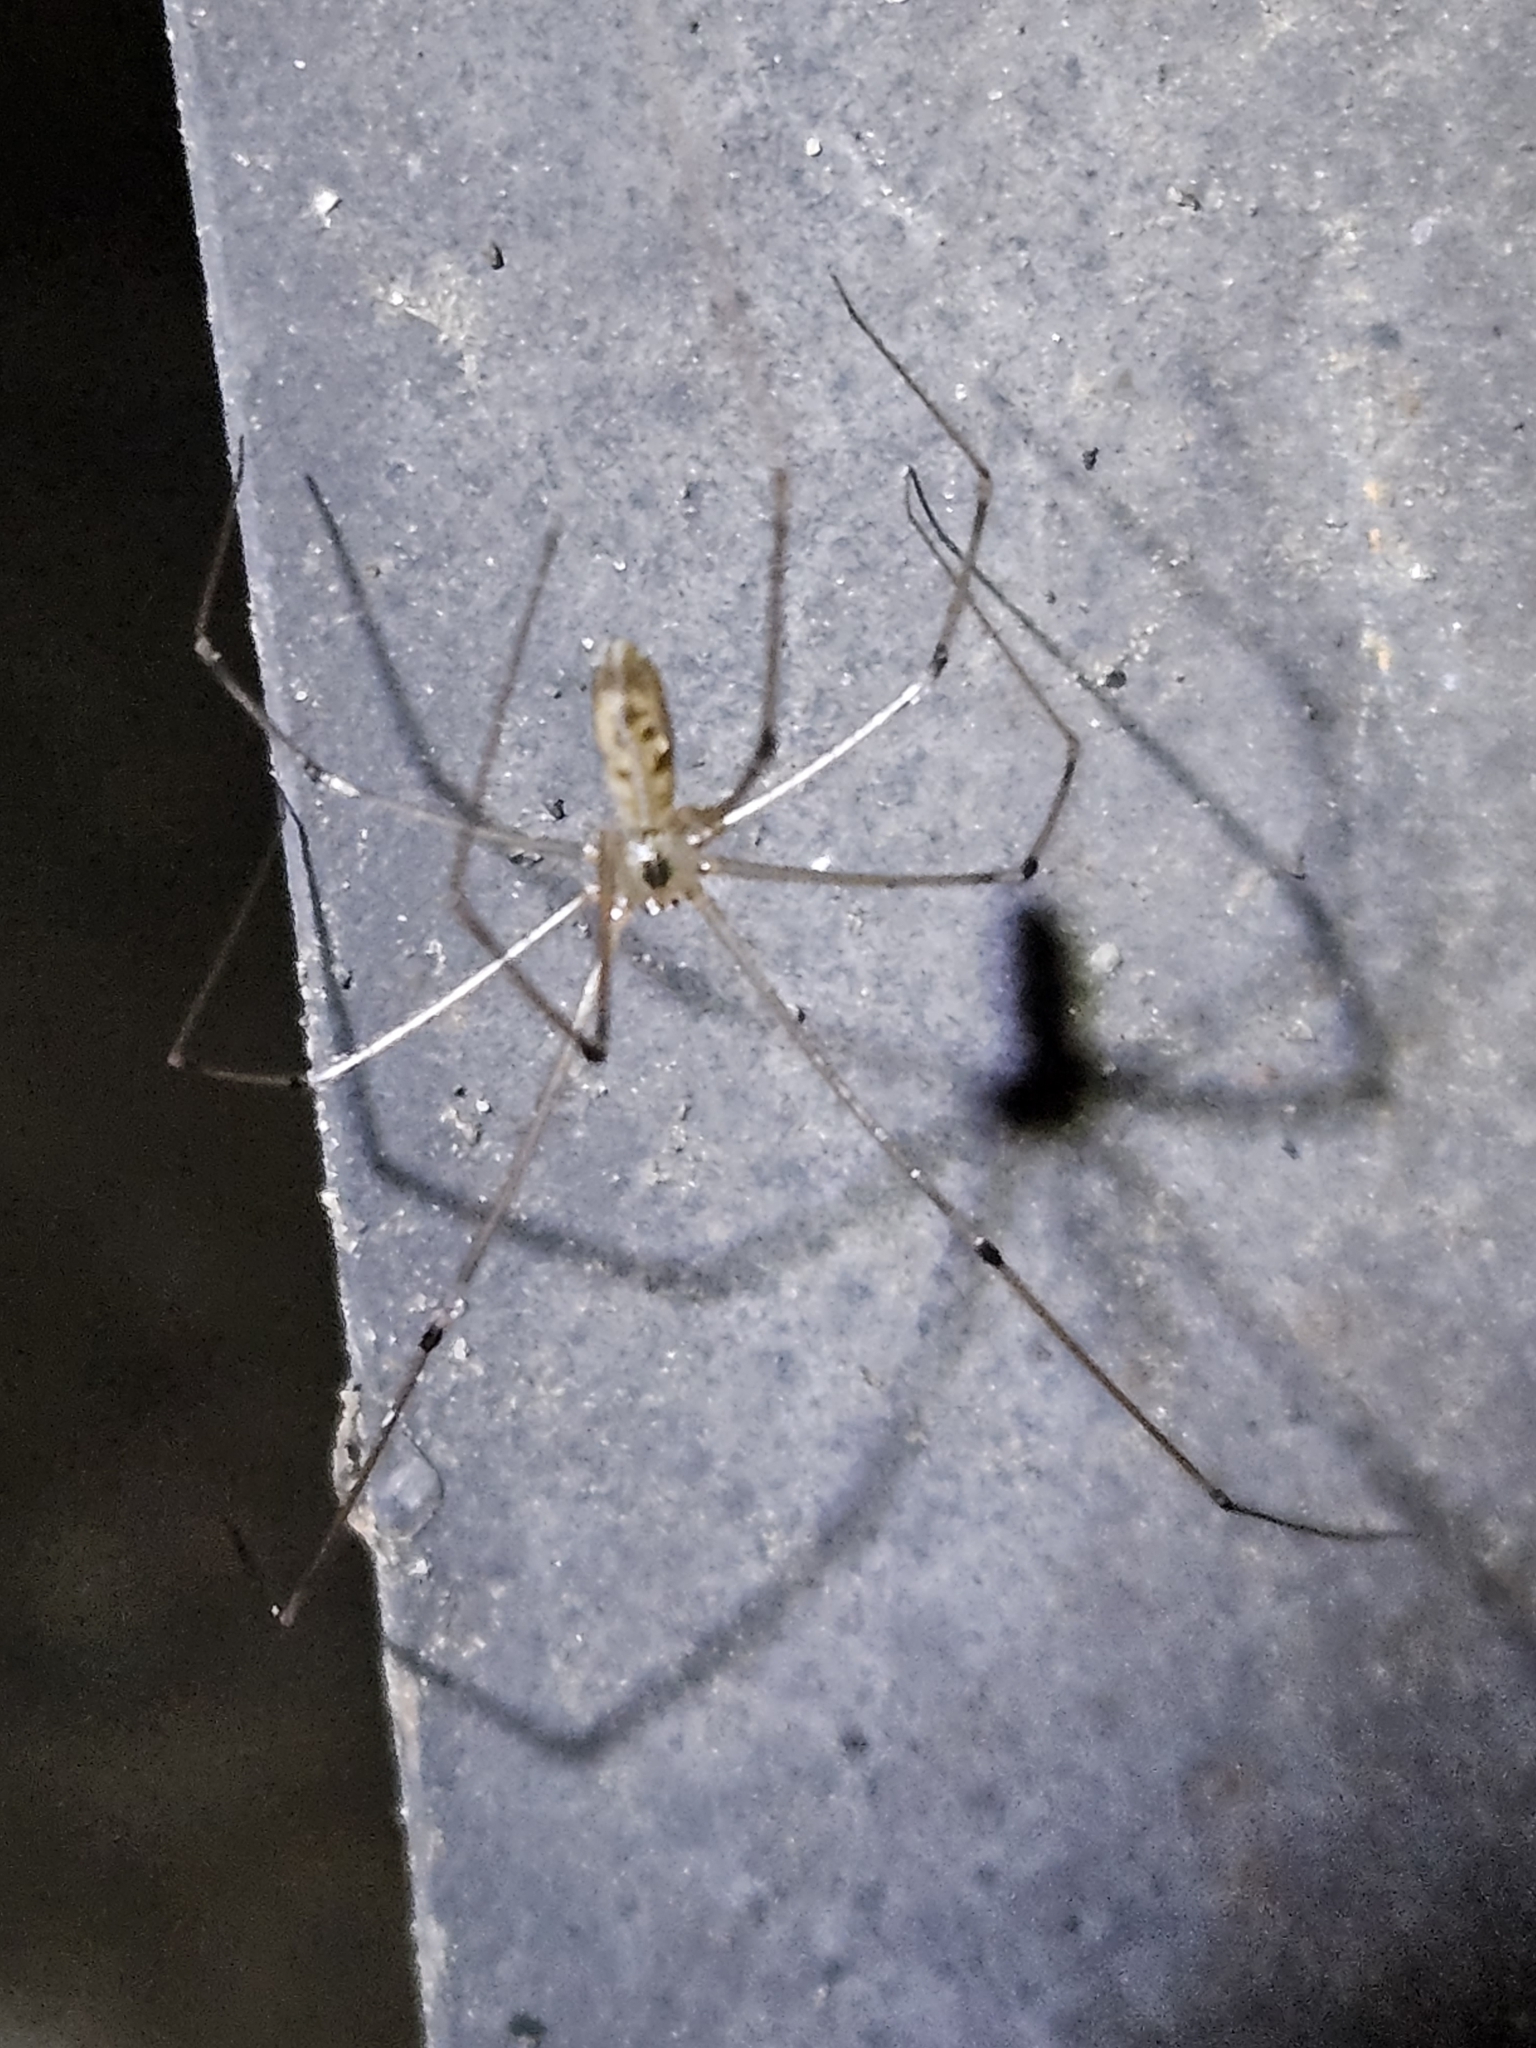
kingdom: Animalia
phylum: Arthropoda
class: Arachnida
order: Araneae
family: Pholcidae
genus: Pholcus
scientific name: Pholcus phalangioides
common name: Longbodied cellar spider
